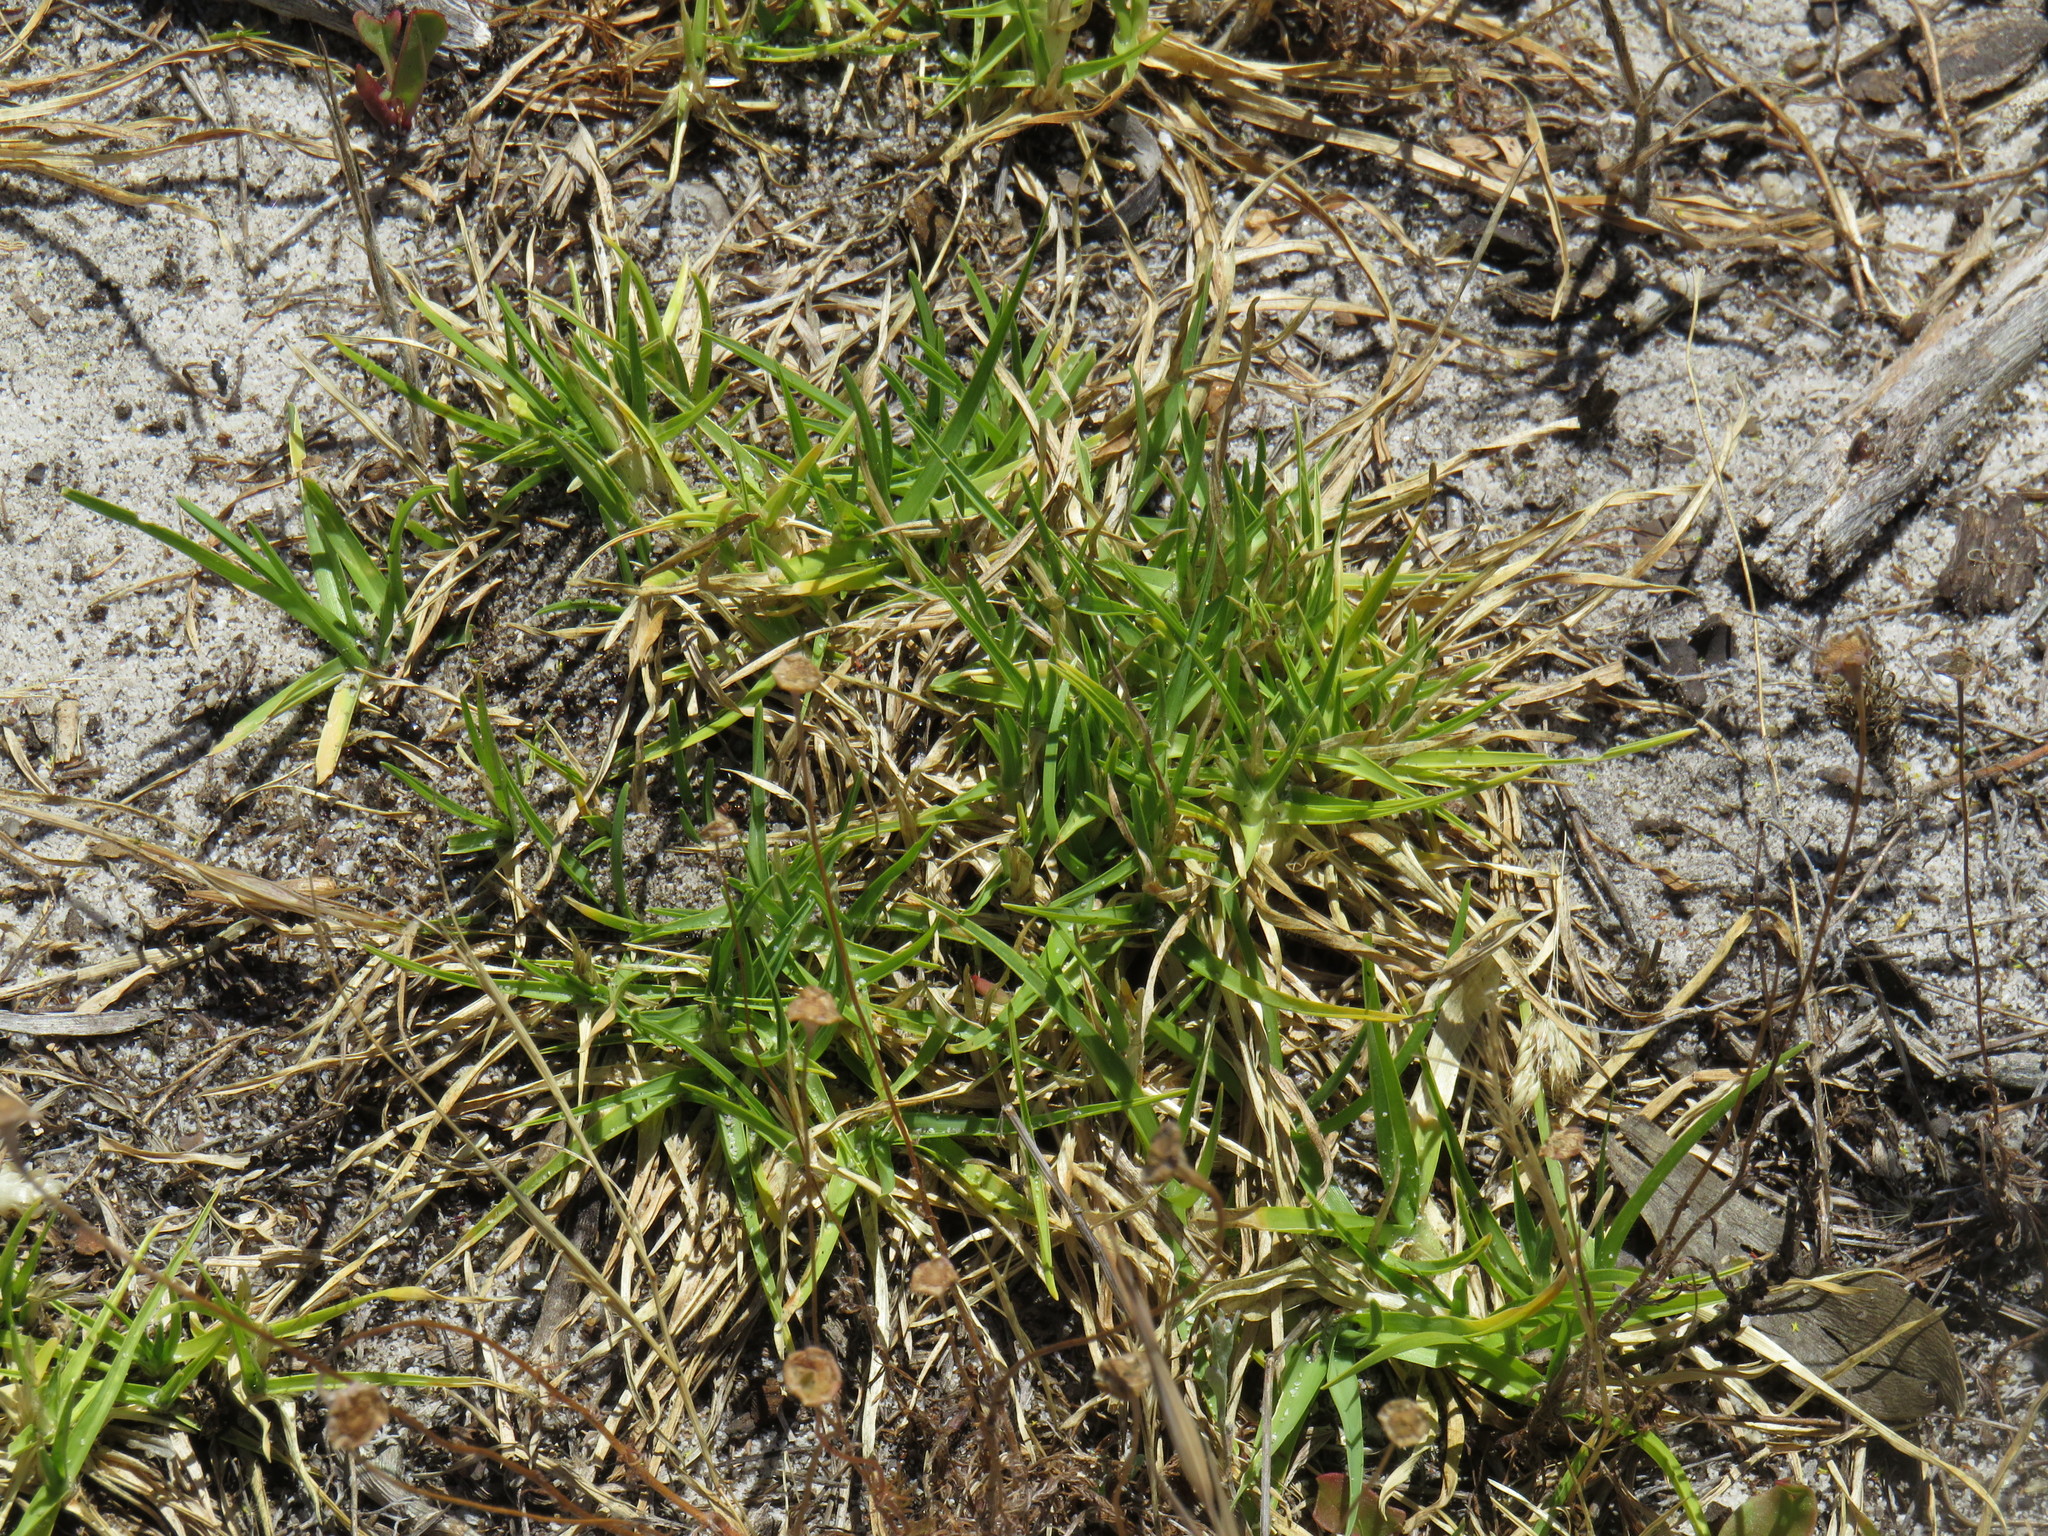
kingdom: Plantae
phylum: Tracheophyta
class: Liliopsida
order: Poales
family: Poaceae
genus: Cenchrus
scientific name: Cenchrus clandestinus
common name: Kikuyugrass
